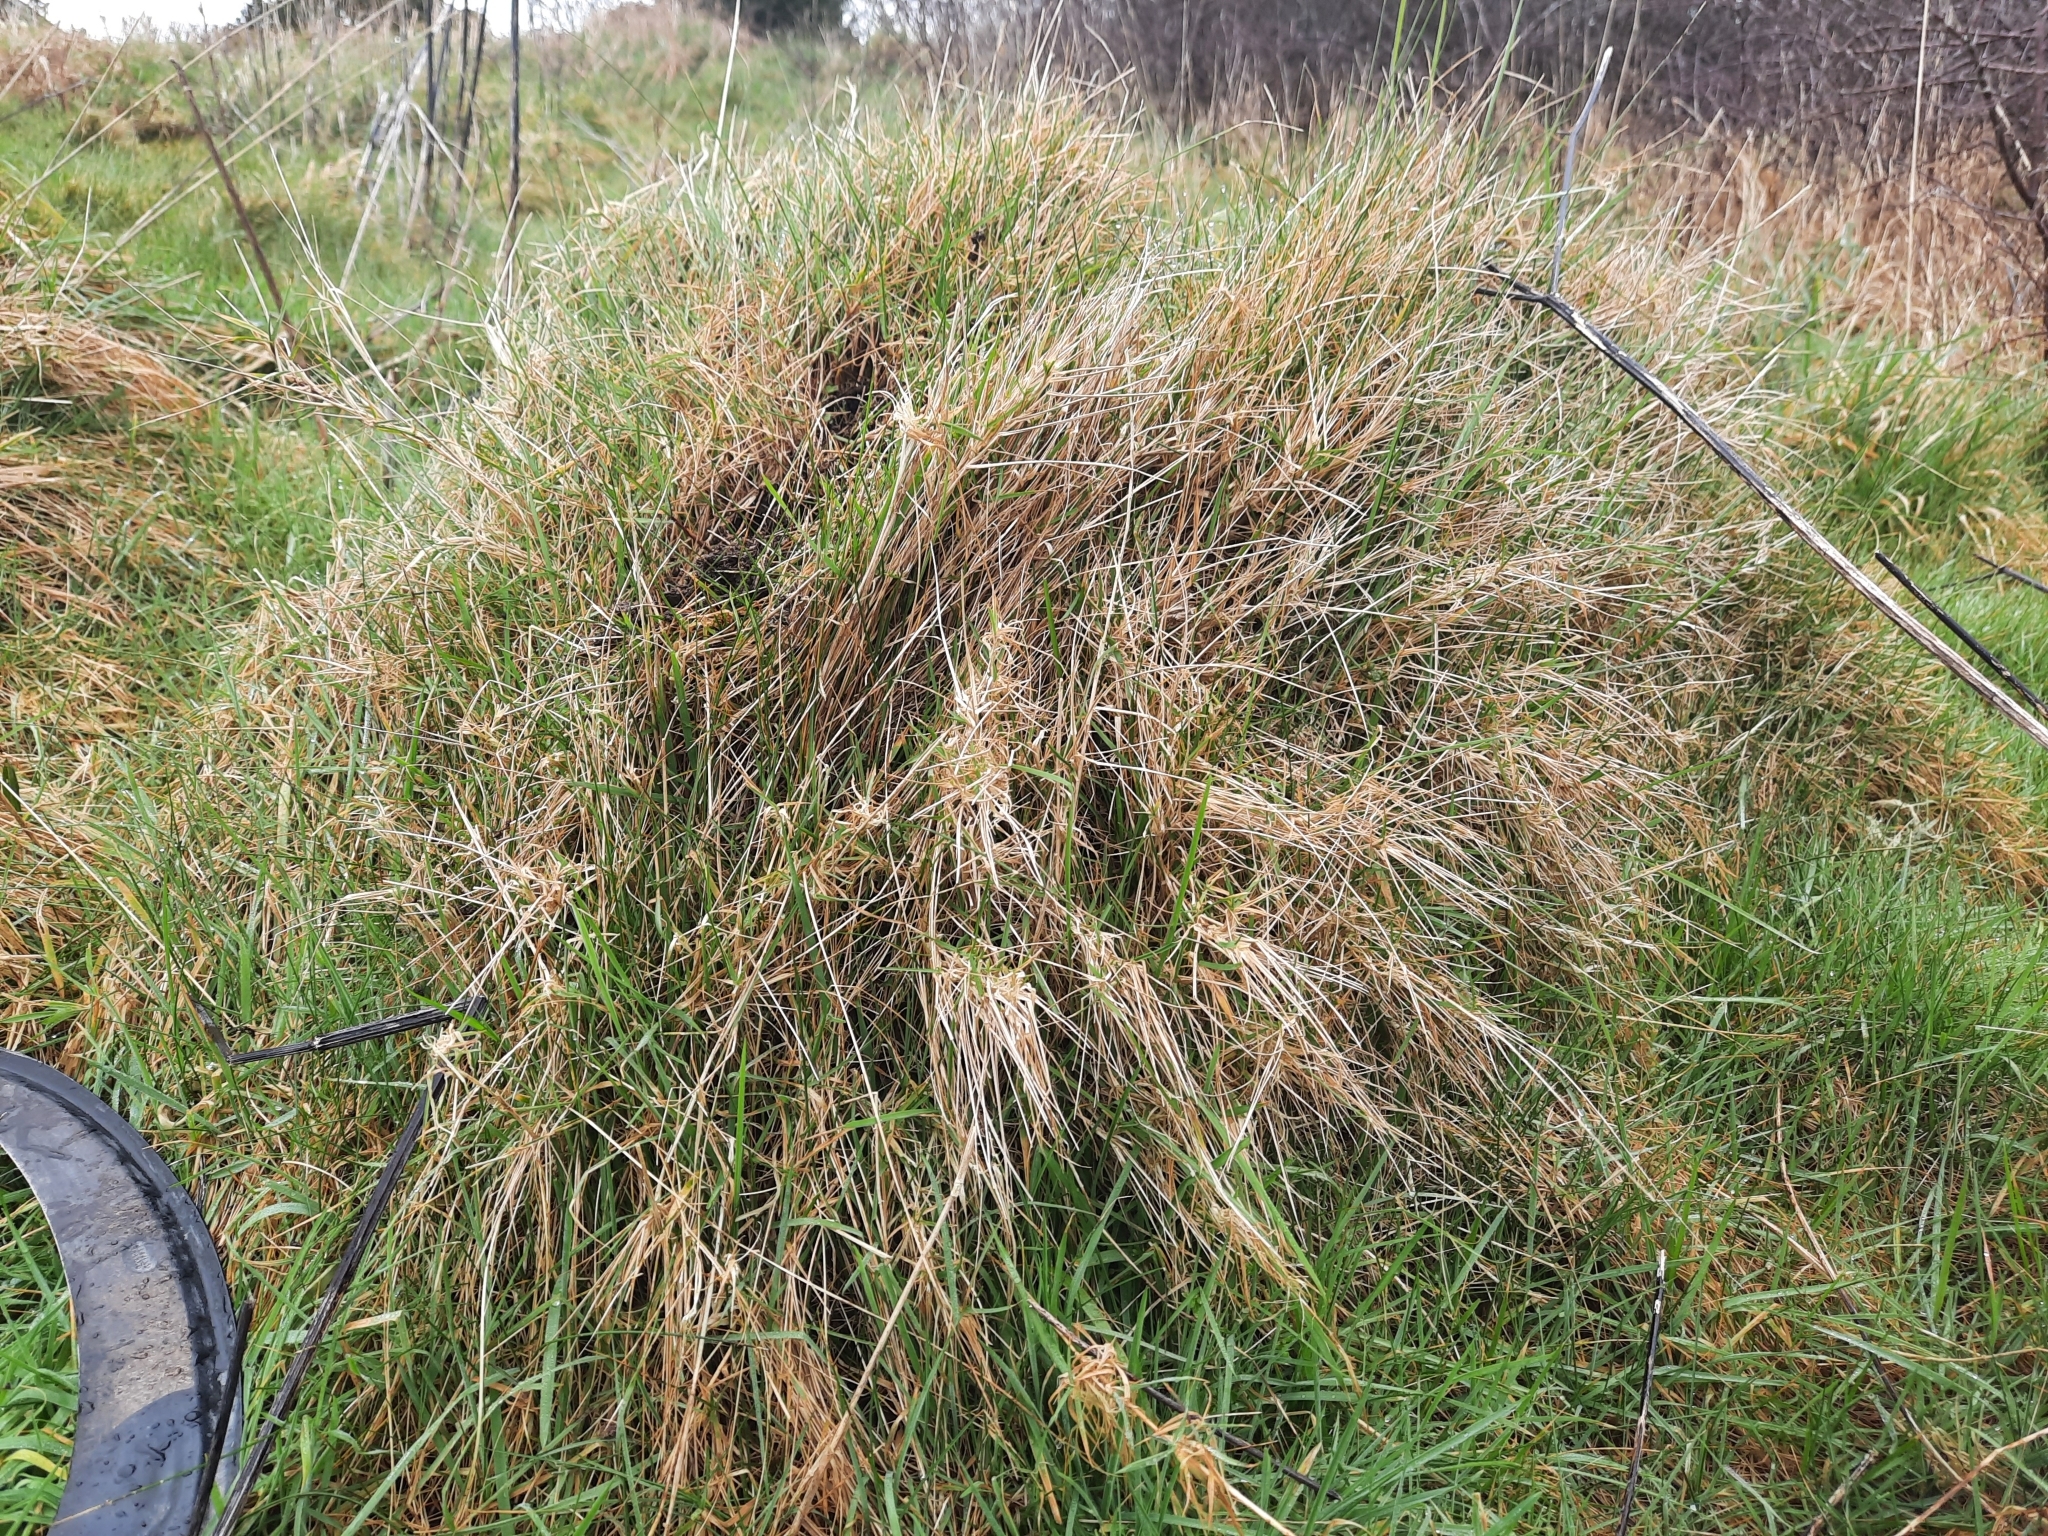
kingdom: Animalia
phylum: Arthropoda
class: Insecta
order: Hymenoptera
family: Formicidae
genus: Lasius
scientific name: Lasius flavus
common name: Blond field ant
